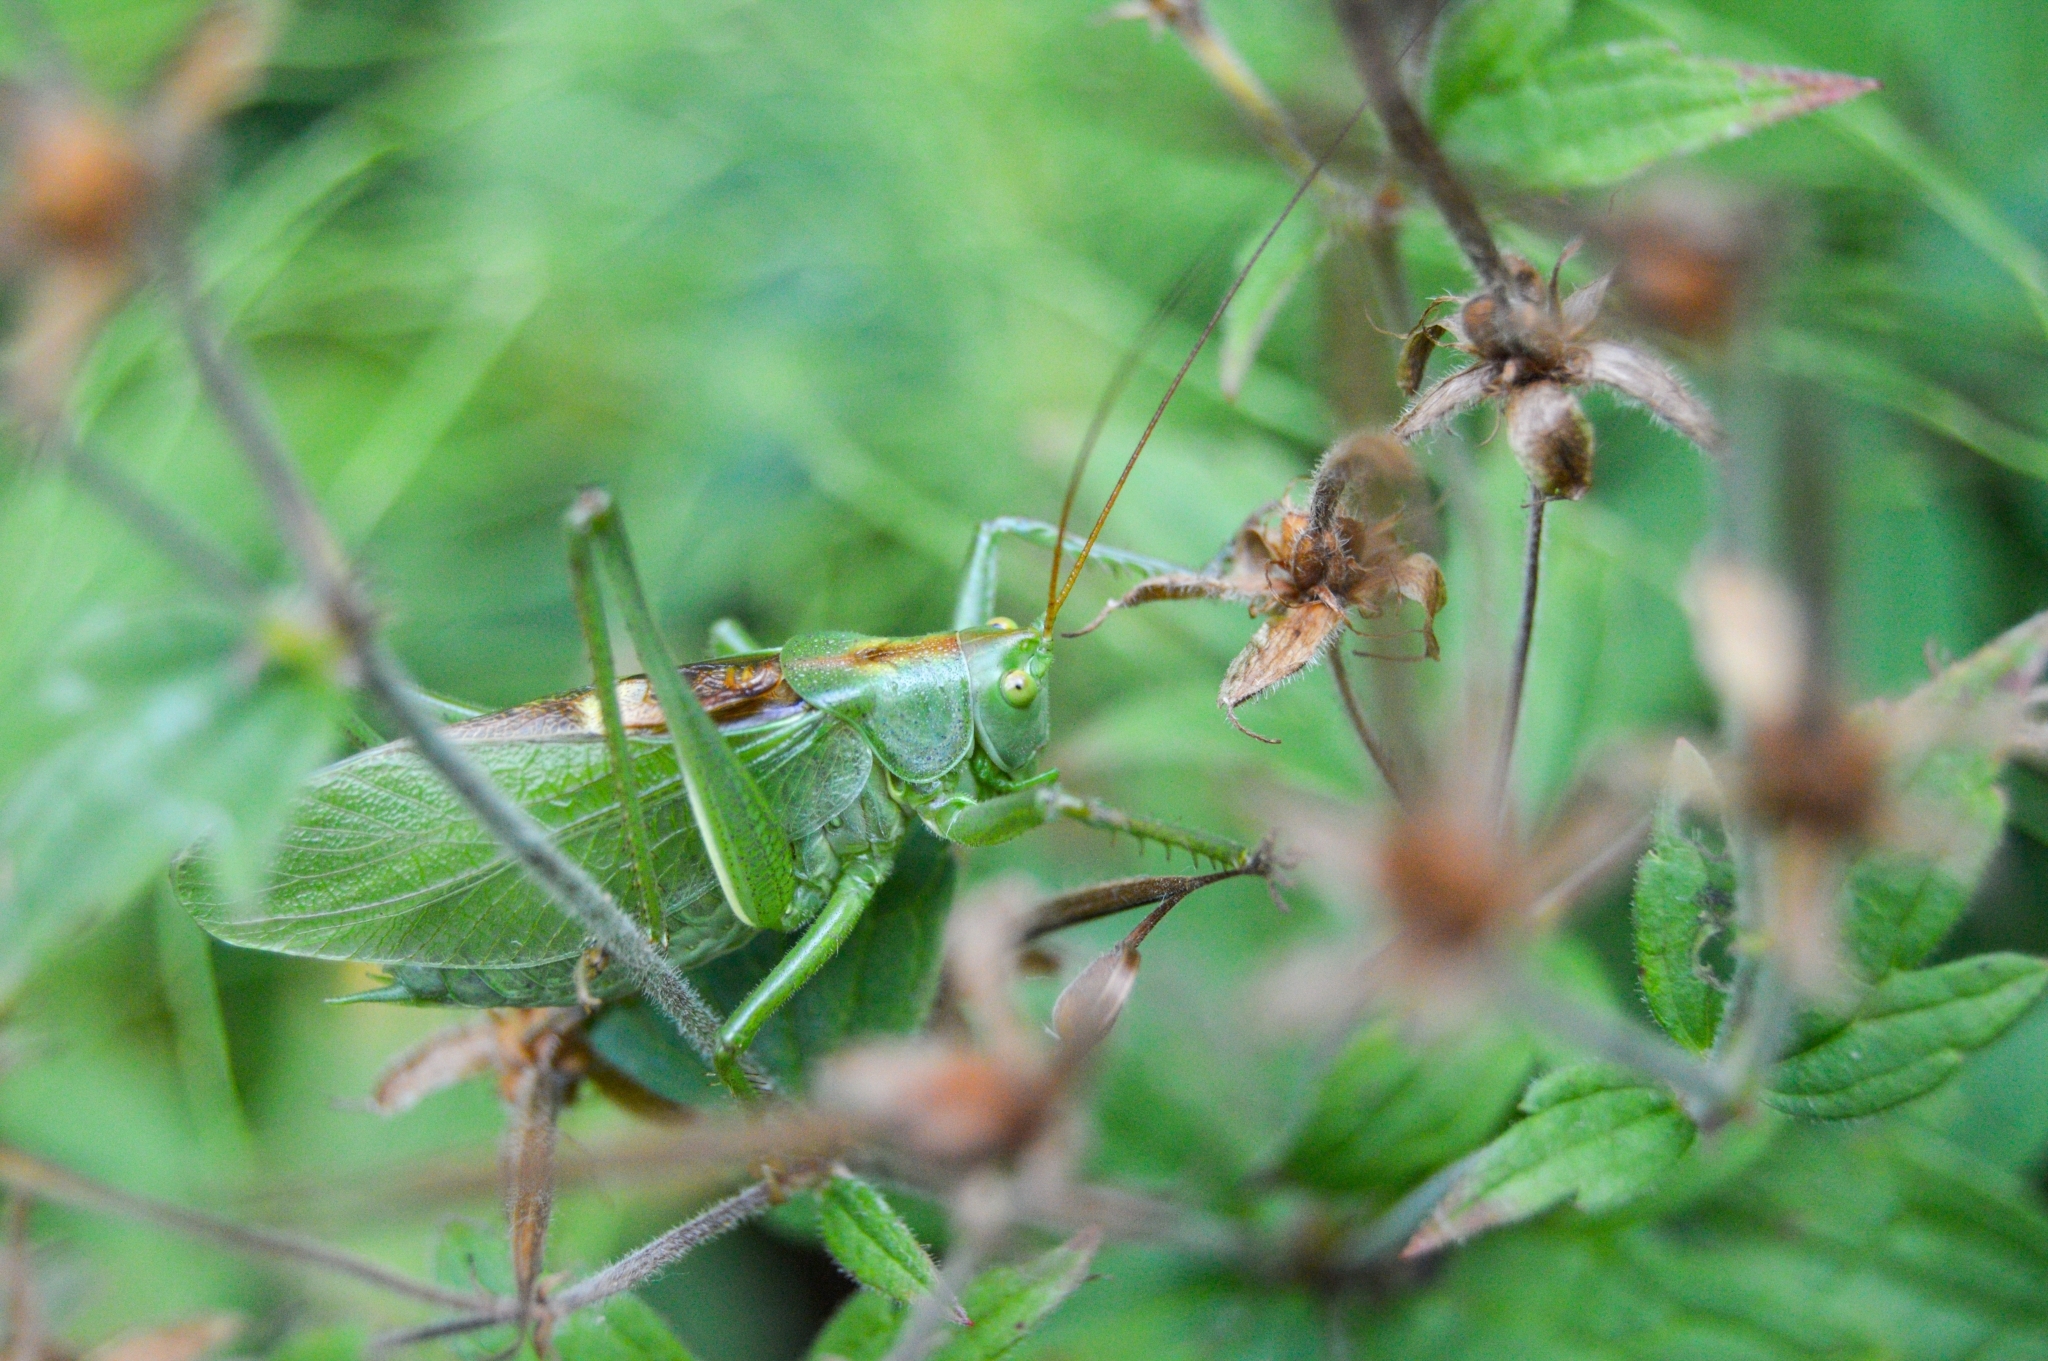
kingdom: Animalia
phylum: Arthropoda
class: Insecta
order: Orthoptera
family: Tettigoniidae
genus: Tettigonia
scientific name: Tettigonia cantans
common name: Upland green bush-cricket
